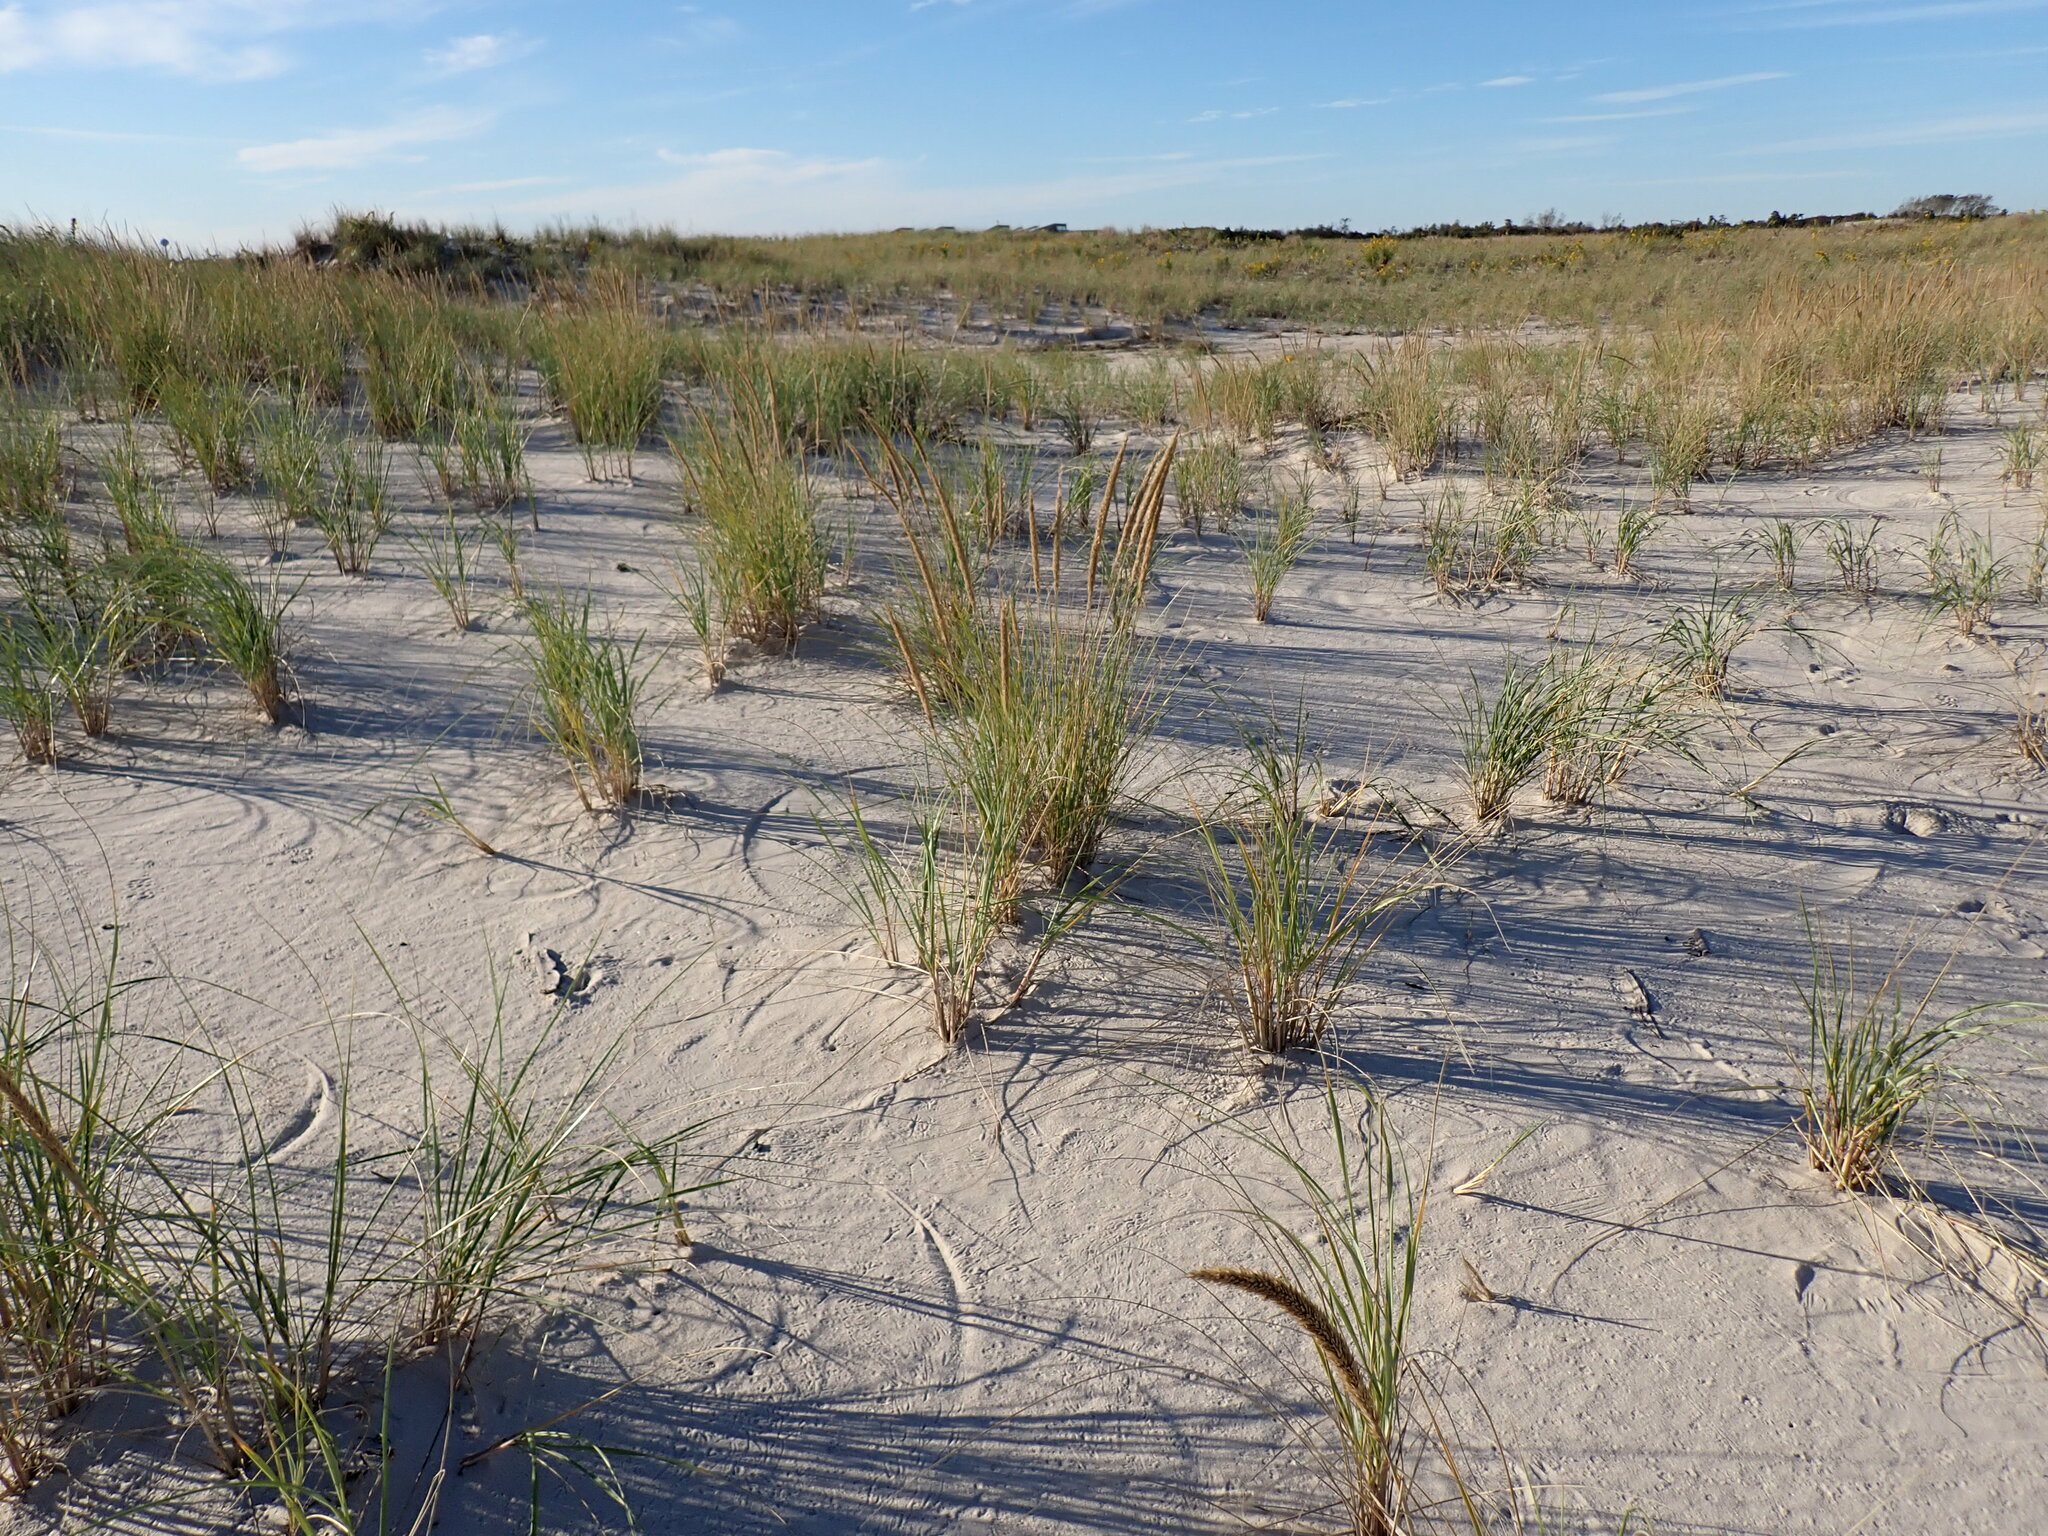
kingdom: Plantae
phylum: Tracheophyta
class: Liliopsida
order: Poales
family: Poaceae
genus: Calamagrostis
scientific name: Calamagrostis breviligulata
